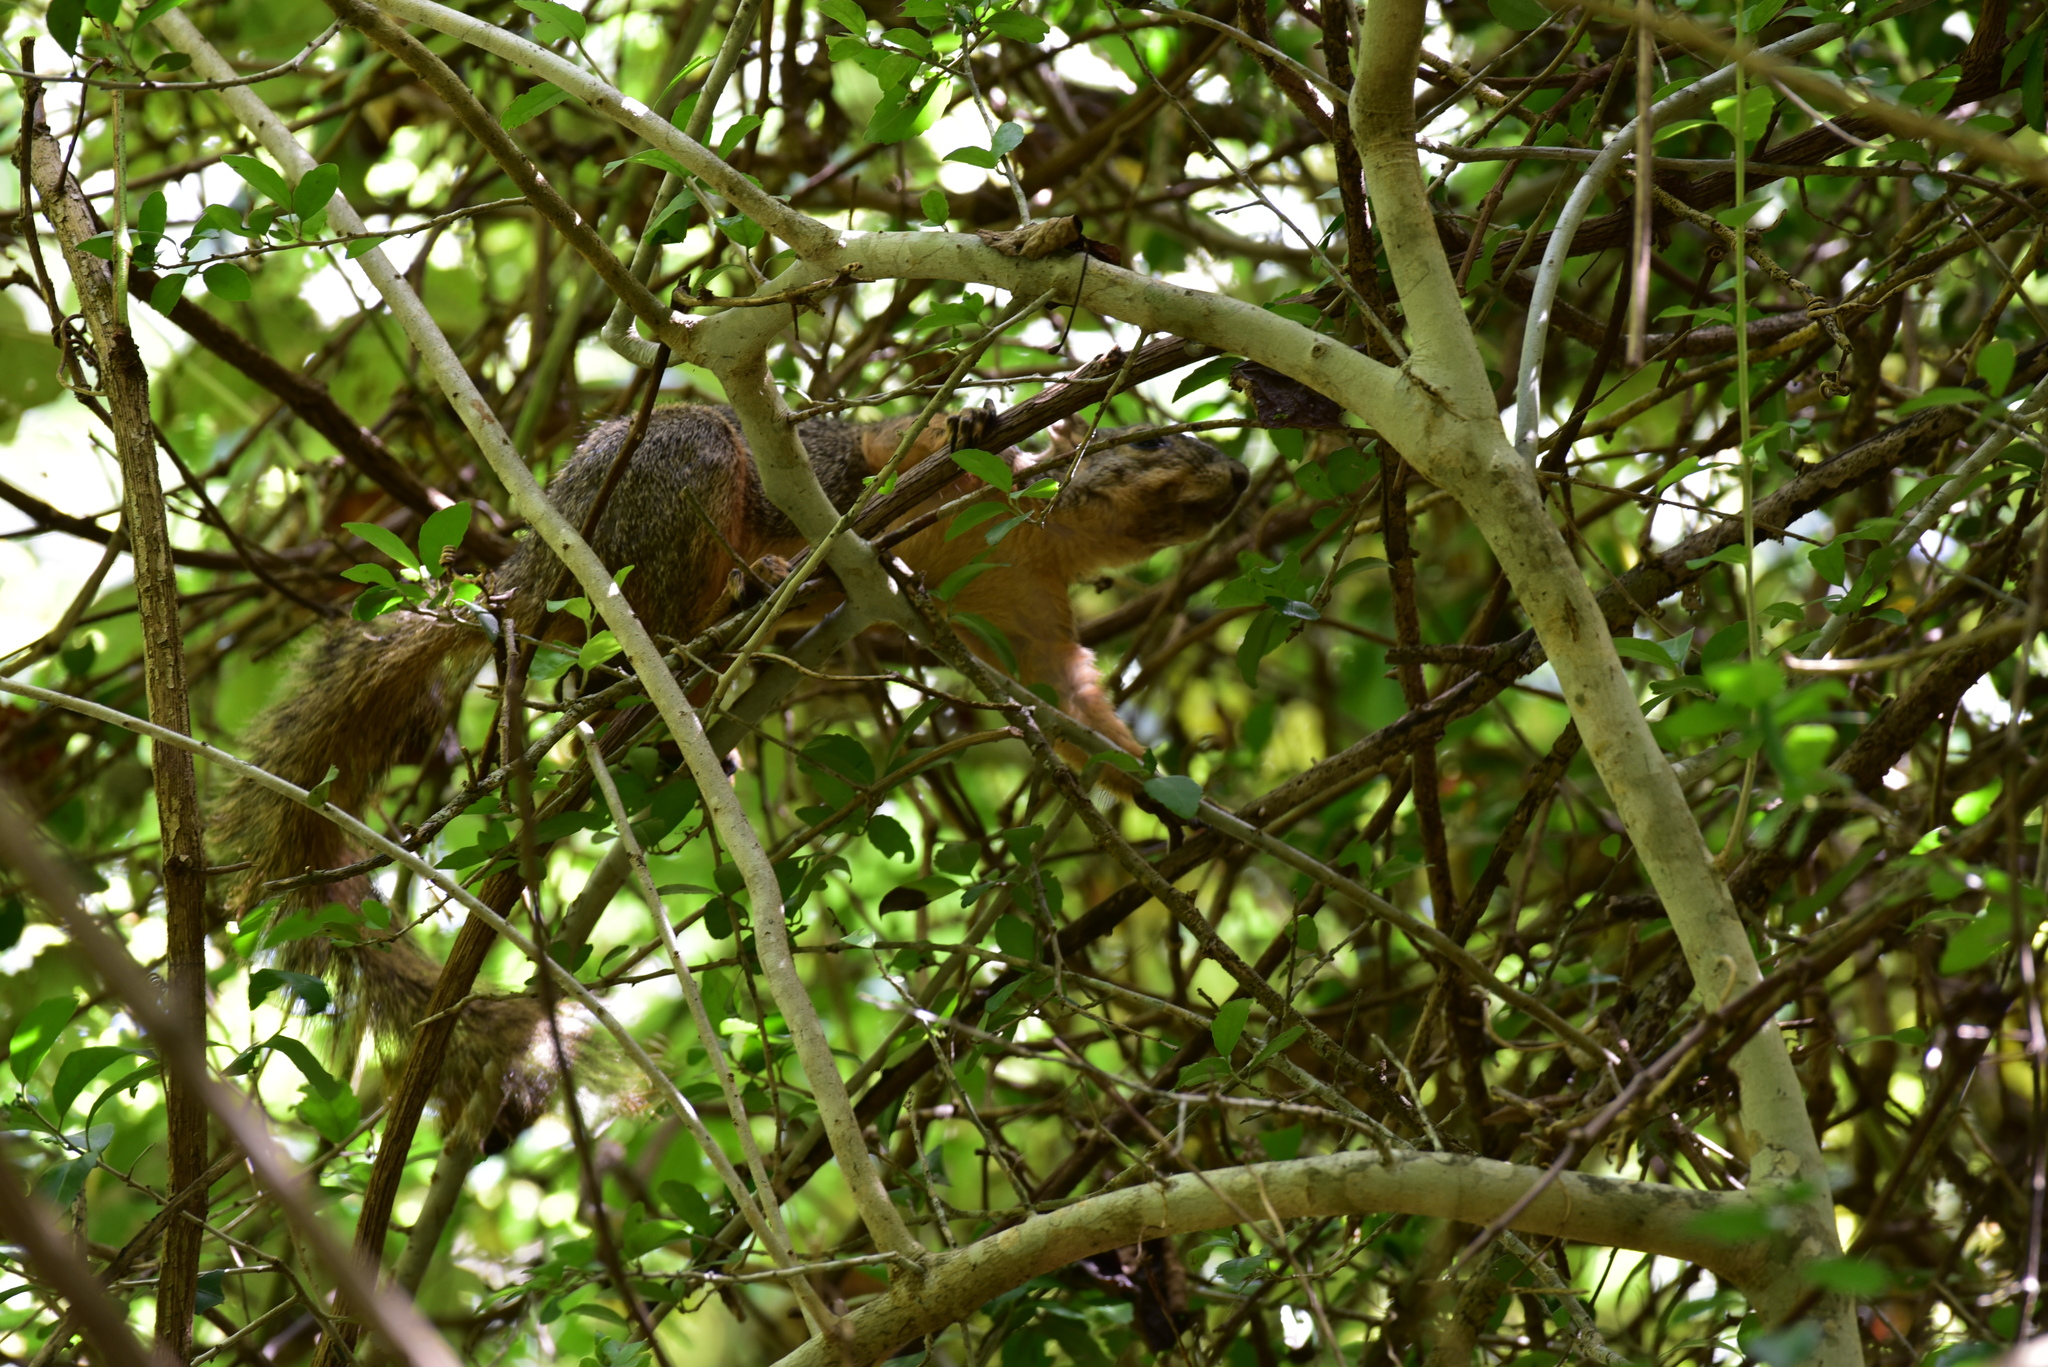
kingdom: Animalia
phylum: Chordata
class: Mammalia
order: Rodentia
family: Sciuridae
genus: Sciurus
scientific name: Sciurus niger
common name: Fox squirrel
